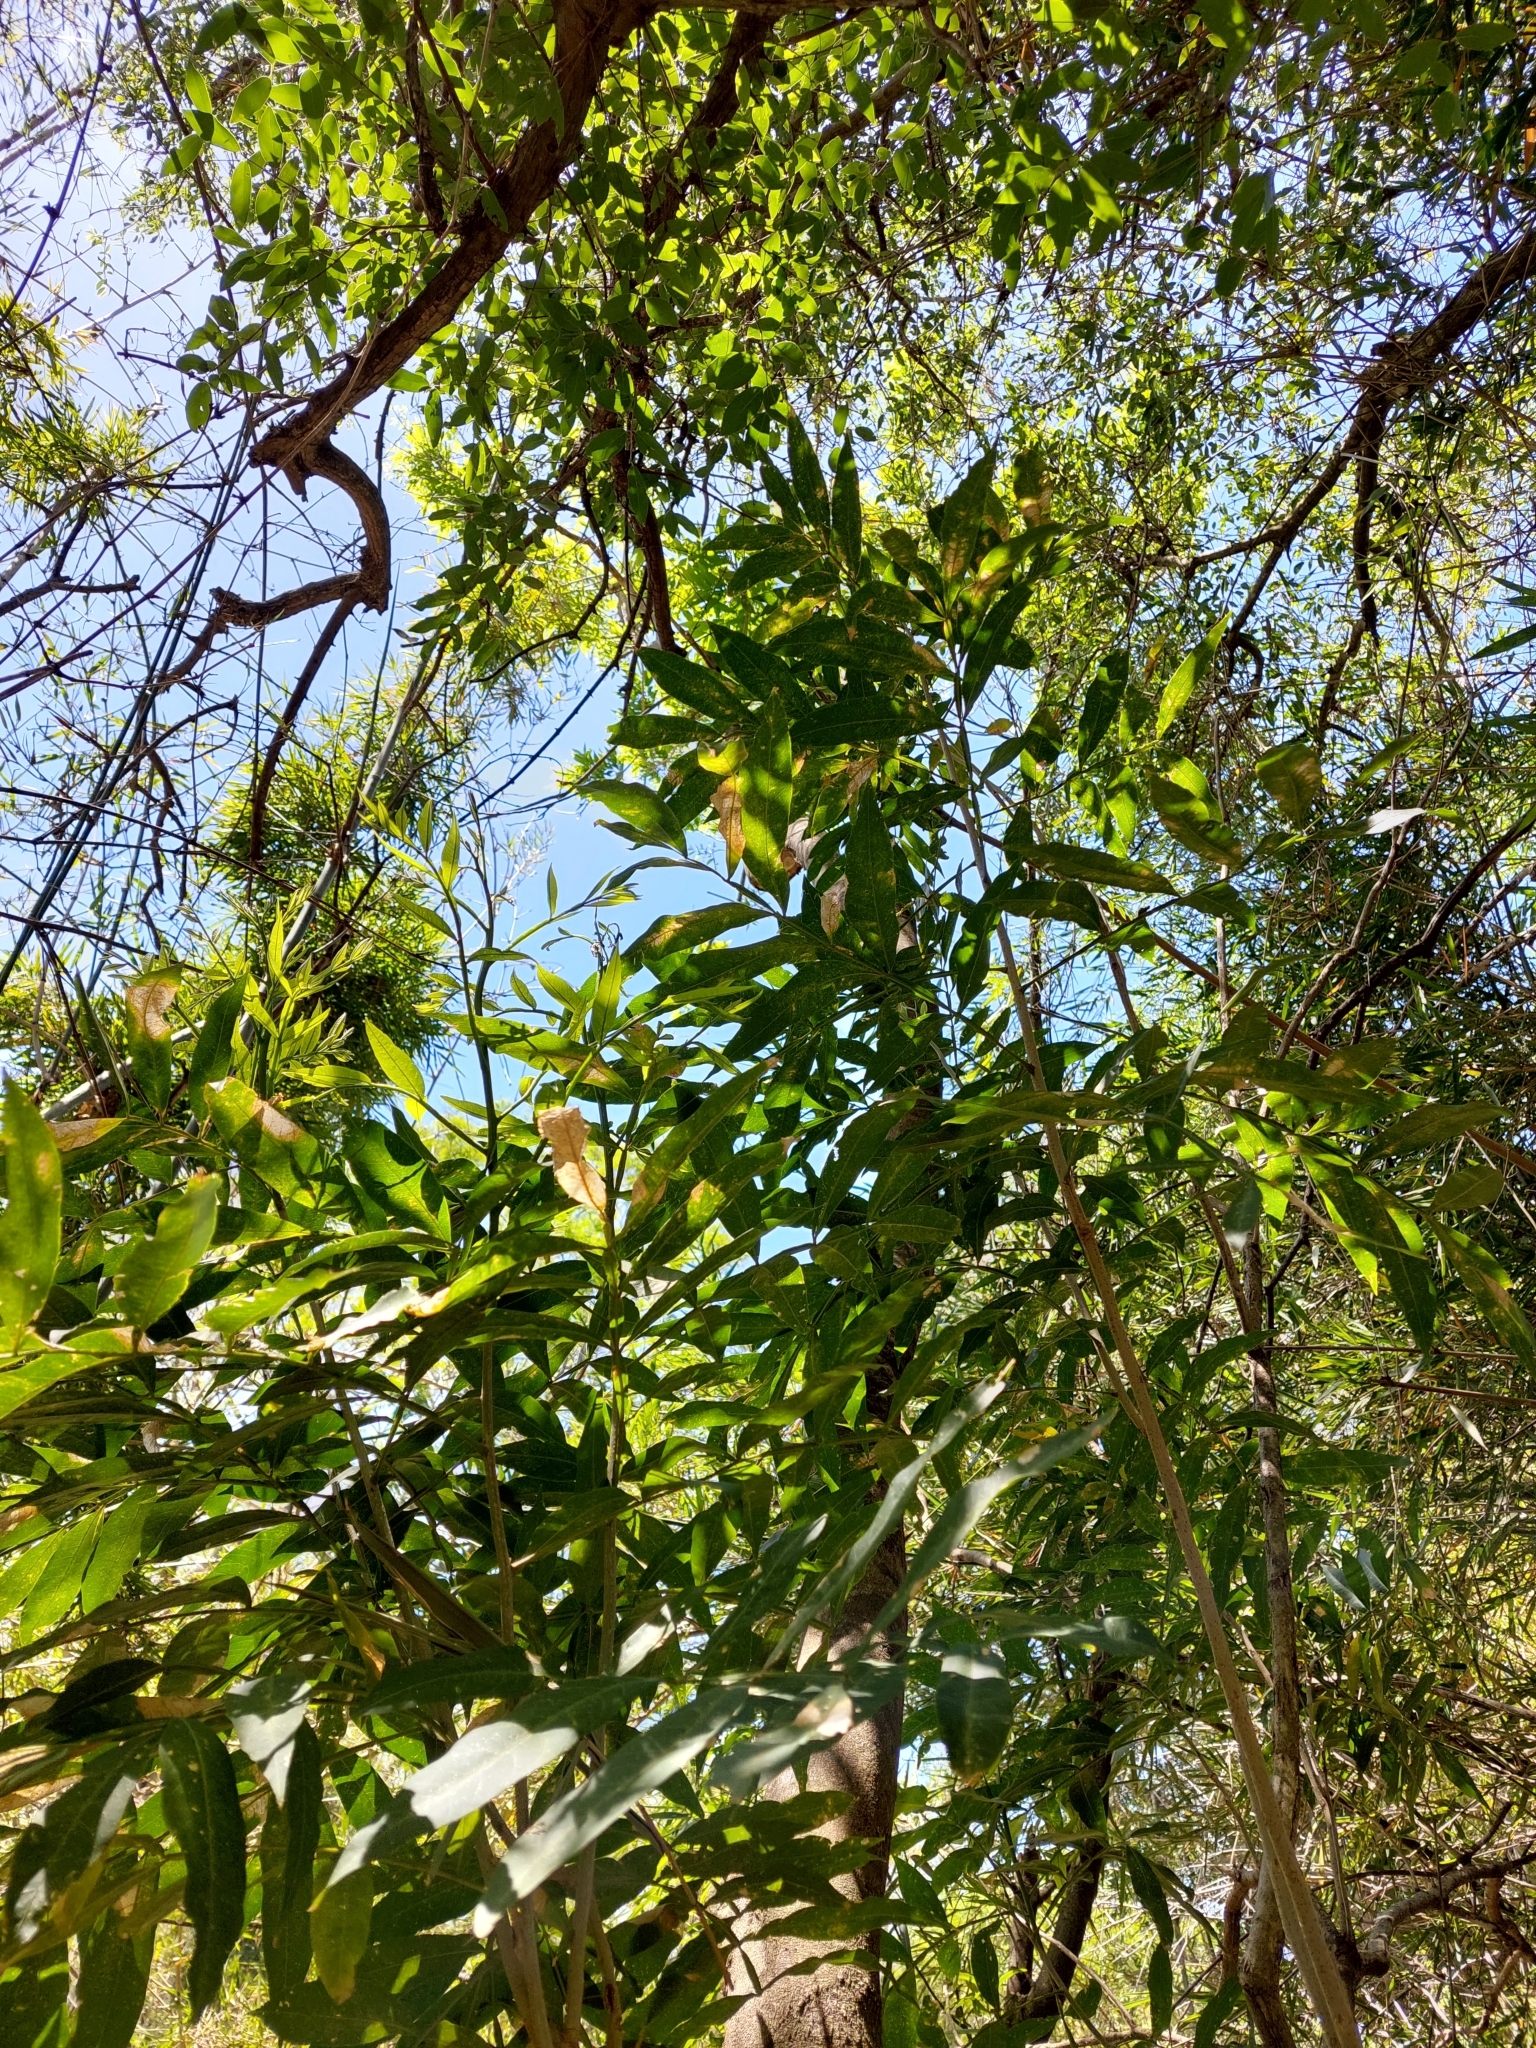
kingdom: Plantae
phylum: Tracheophyta
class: Magnoliopsida
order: Sapindales
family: Sapindaceae
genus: Sapindus
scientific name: Sapindus saponaria
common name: Wingleaf soapberry
